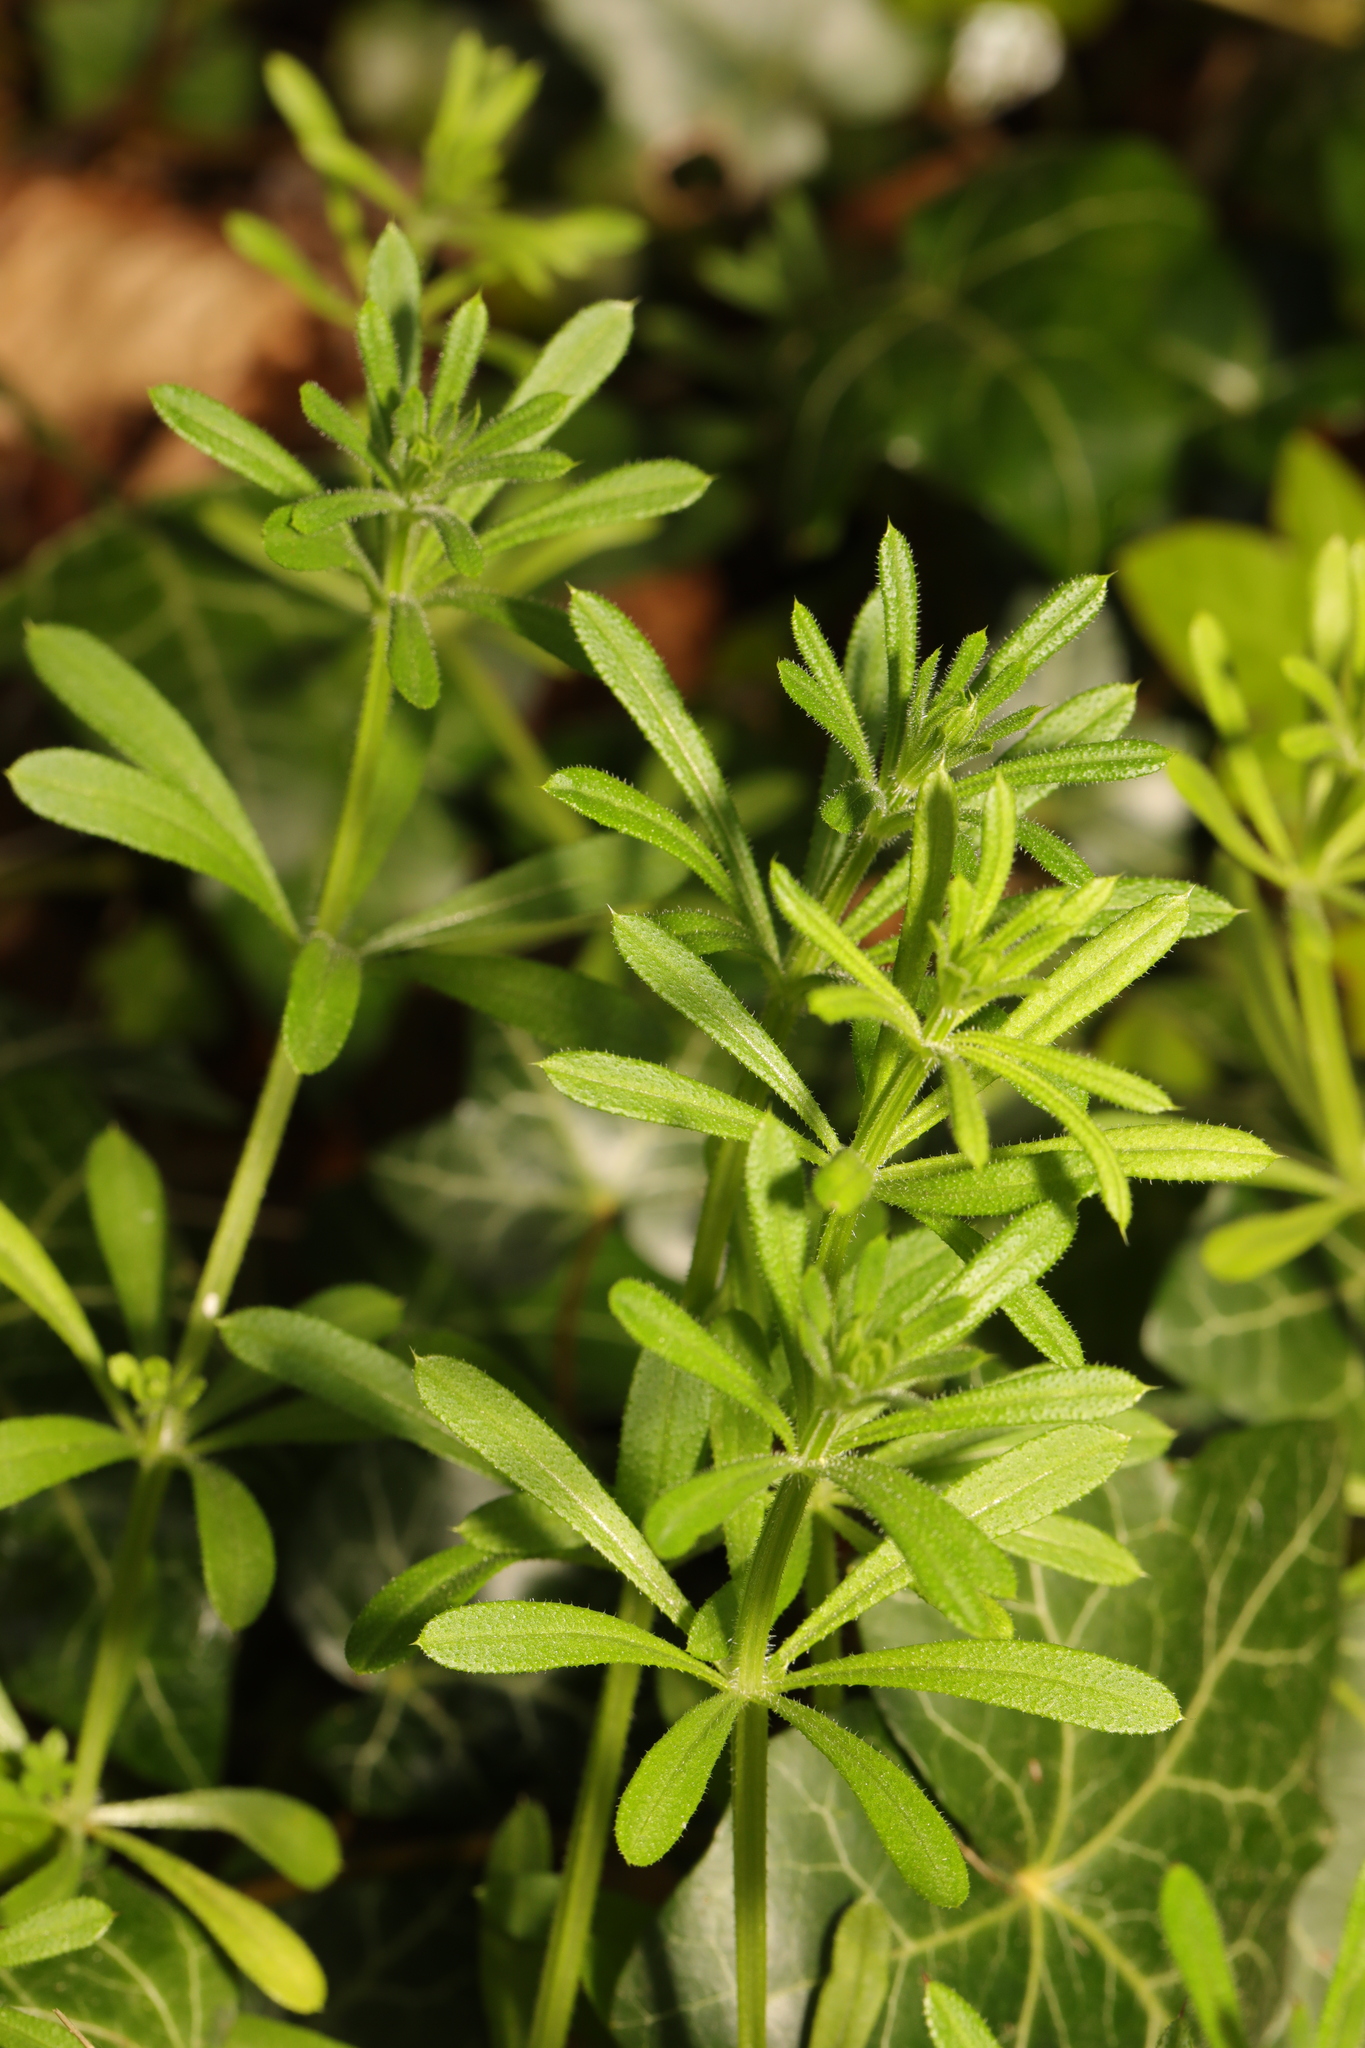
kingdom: Plantae
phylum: Tracheophyta
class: Magnoliopsida
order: Gentianales
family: Rubiaceae
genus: Galium
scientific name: Galium aparine
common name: Cleavers
